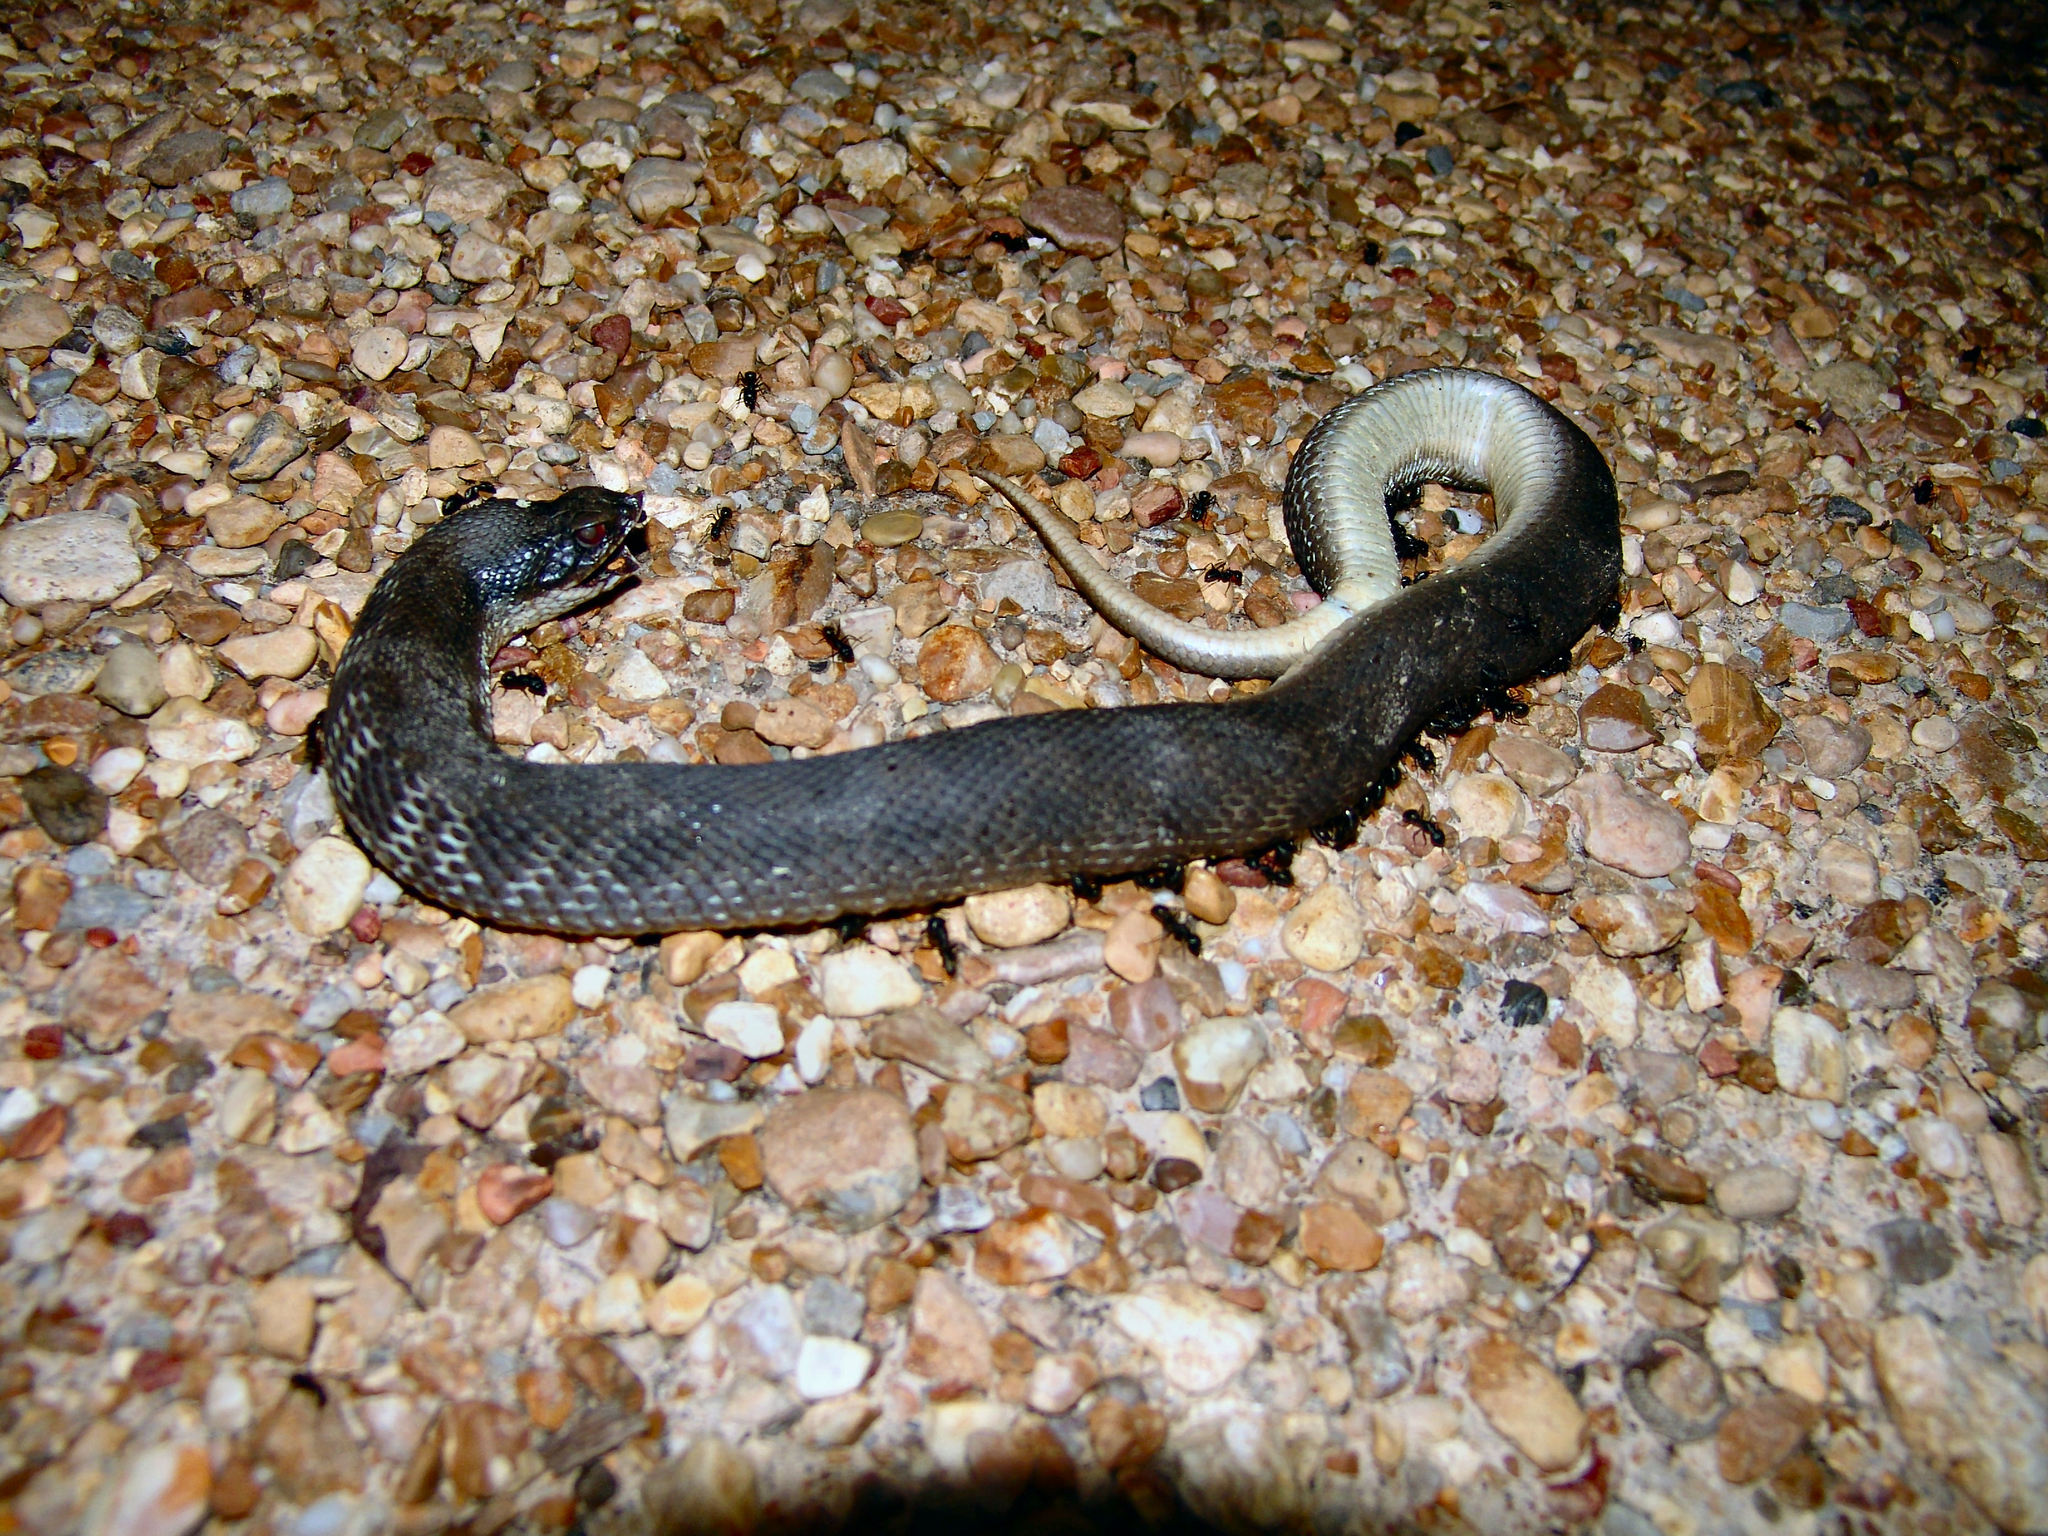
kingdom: Animalia
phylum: Chordata
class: Squamata
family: Colubridae
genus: Heterodon
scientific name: Heterodon platirhinos
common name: Eastern hognose snake
